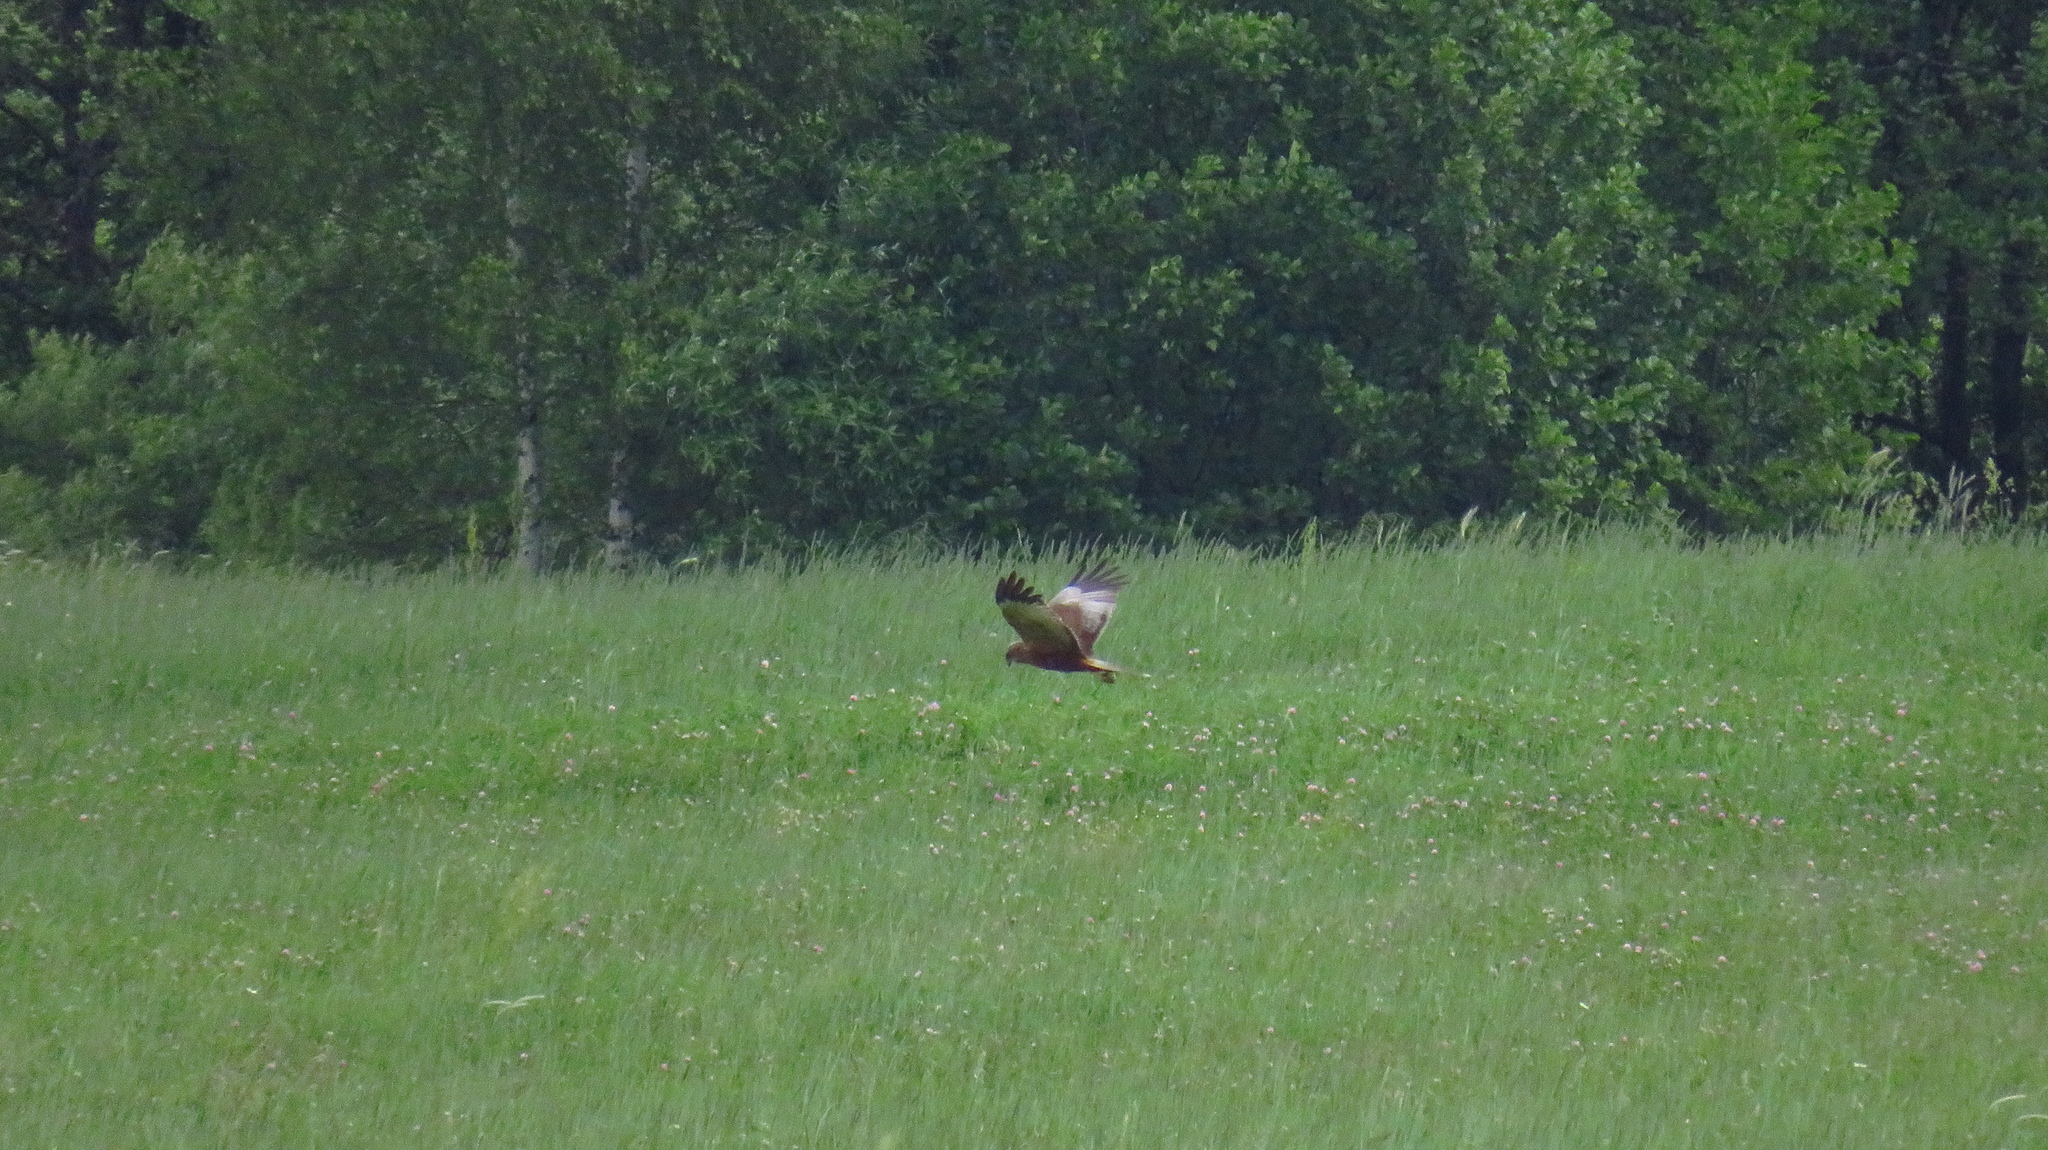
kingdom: Animalia
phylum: Chordata
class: Aves
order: Accipitriformes
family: Accipitridae
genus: Circus
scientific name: Circus aeruginosus
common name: Western marsh harrier
